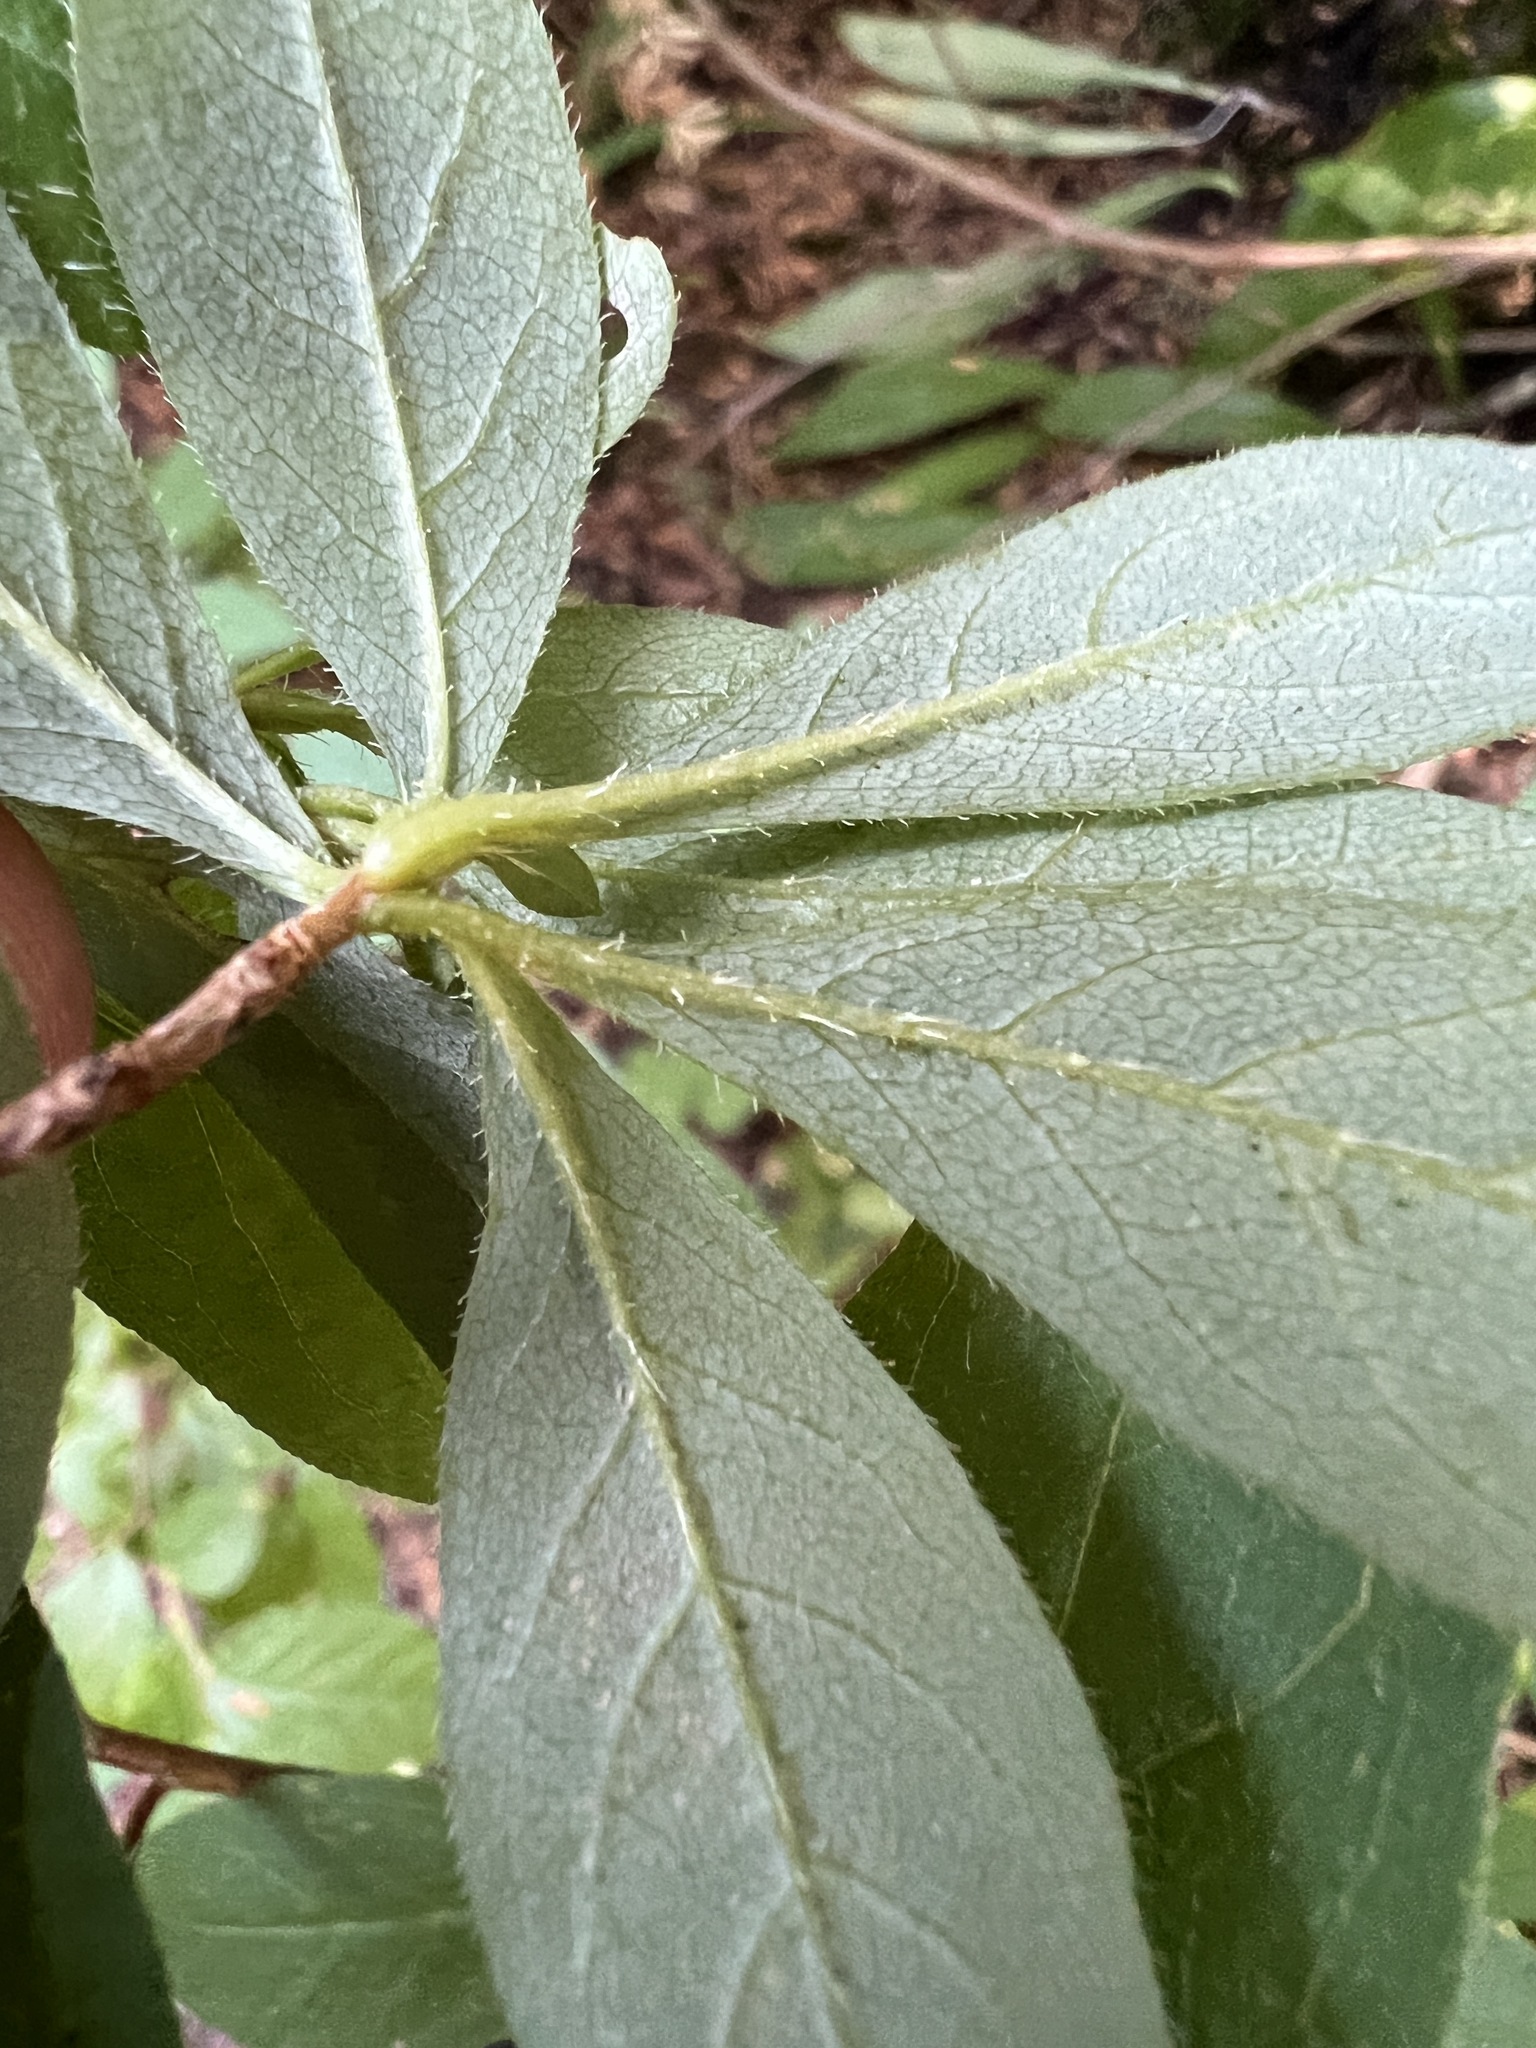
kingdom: Plantae
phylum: Tracheophyta
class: Magnoliopsida
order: Ericales
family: Ericaceae
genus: Rhododendron
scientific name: Rhododendron menziesii
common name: Pacific menziesia
